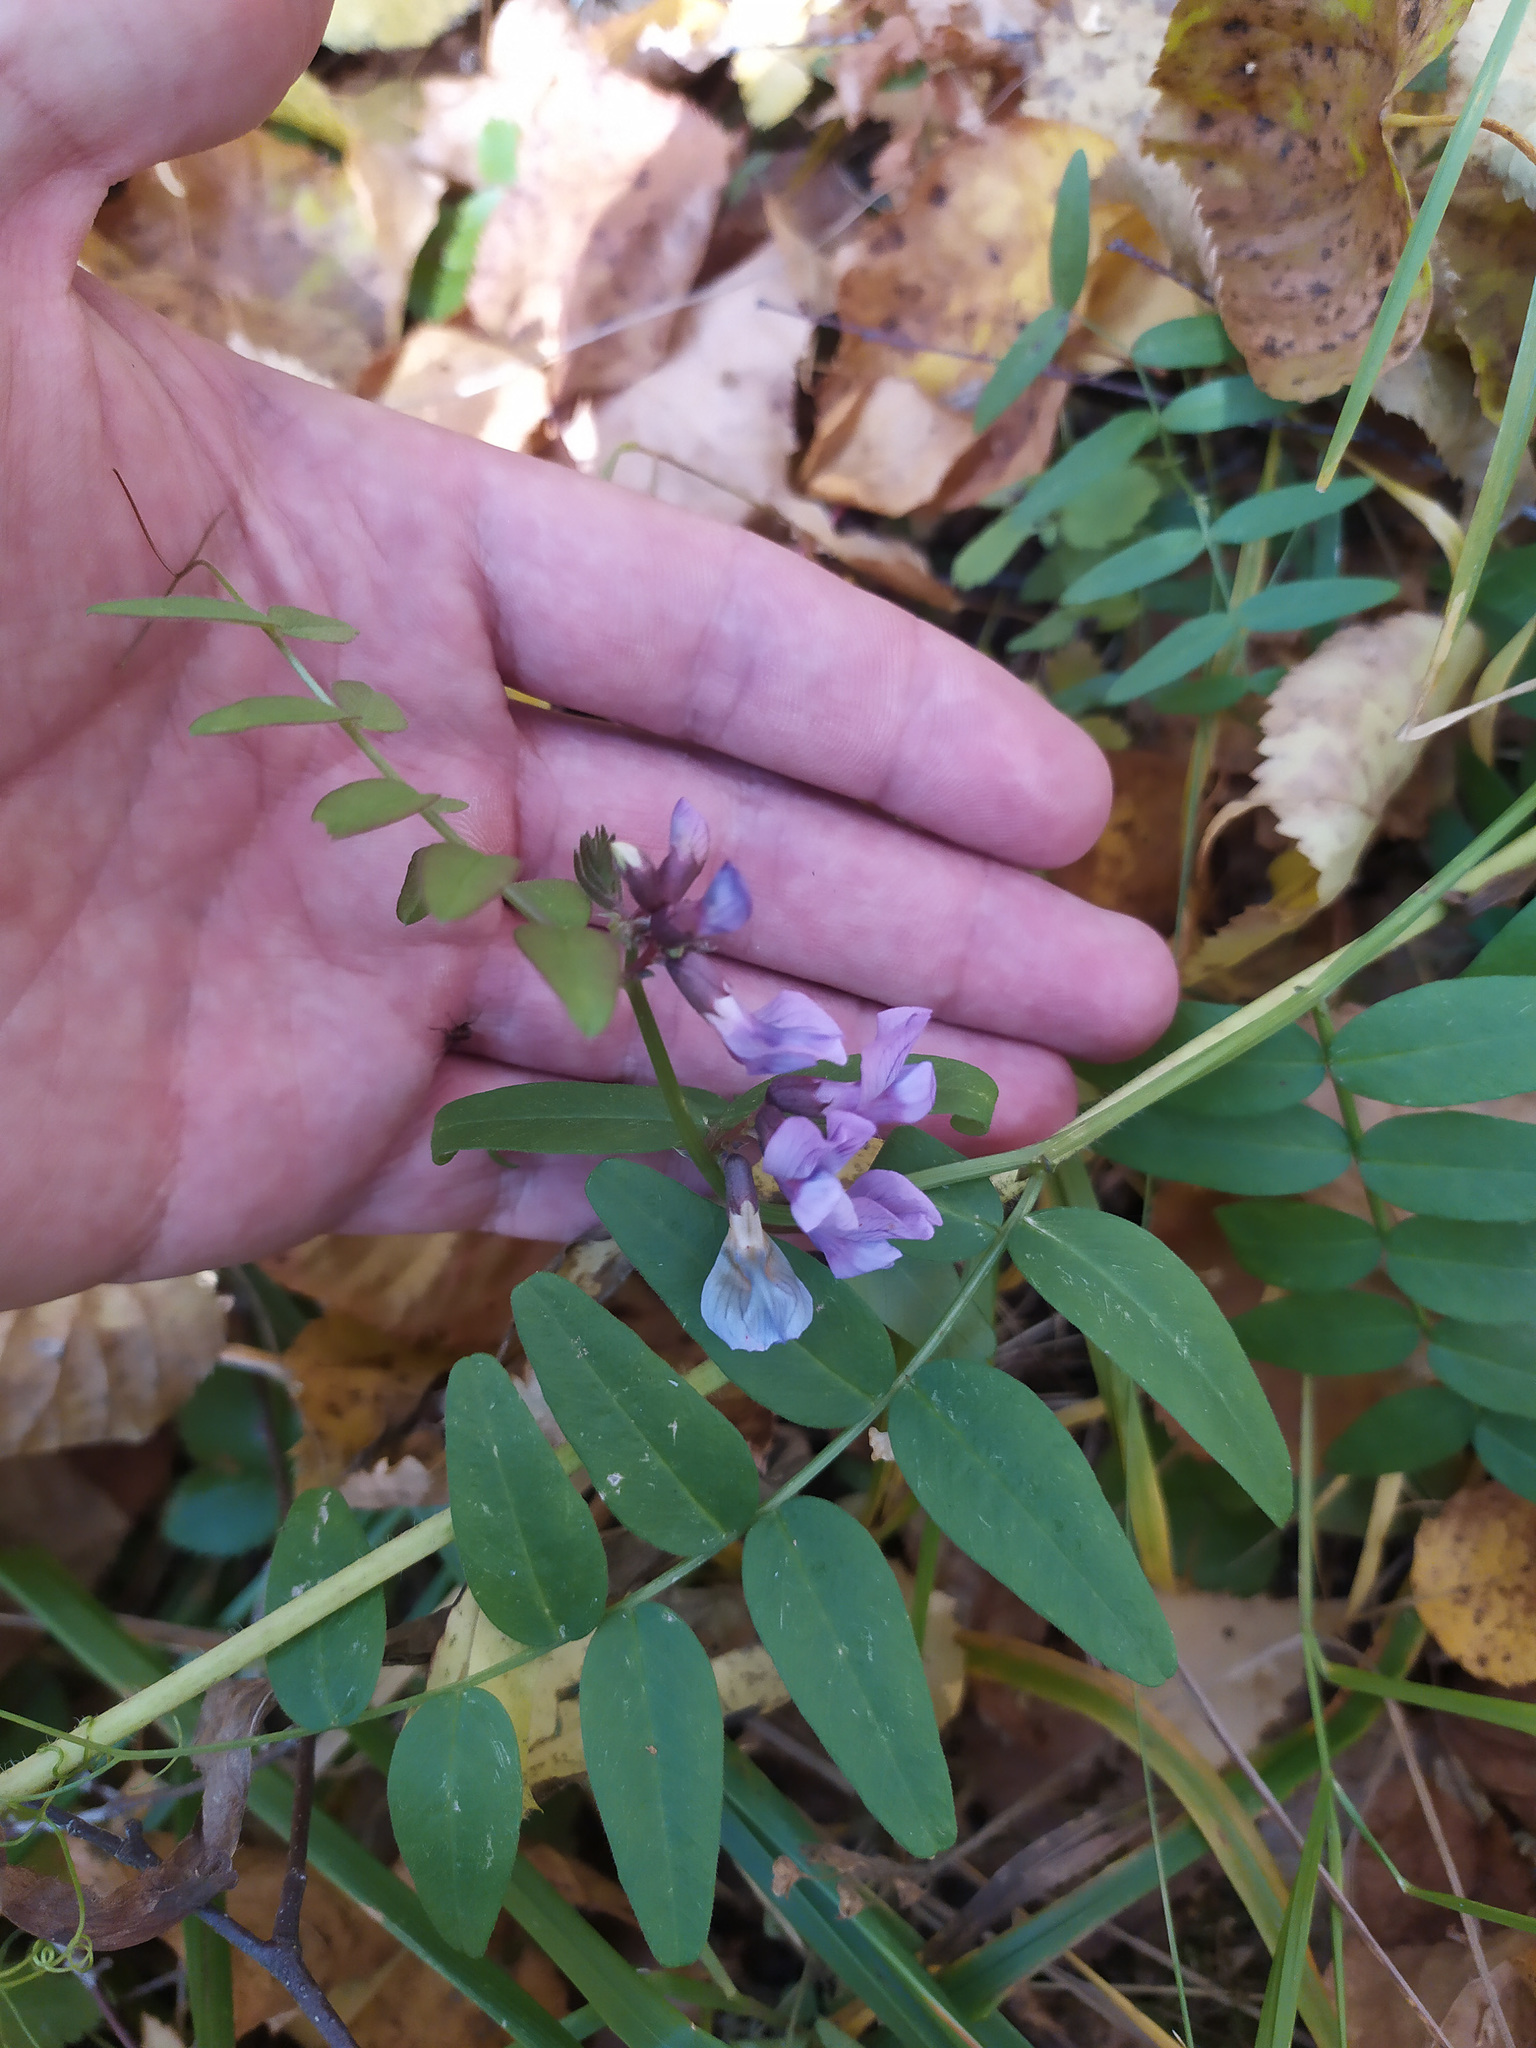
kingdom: Plantae
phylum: Tracheophyta
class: Magnoliopsida
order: Fabales
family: Fabaceae
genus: Vicia
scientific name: Vicia sepium
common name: Bush vetch
